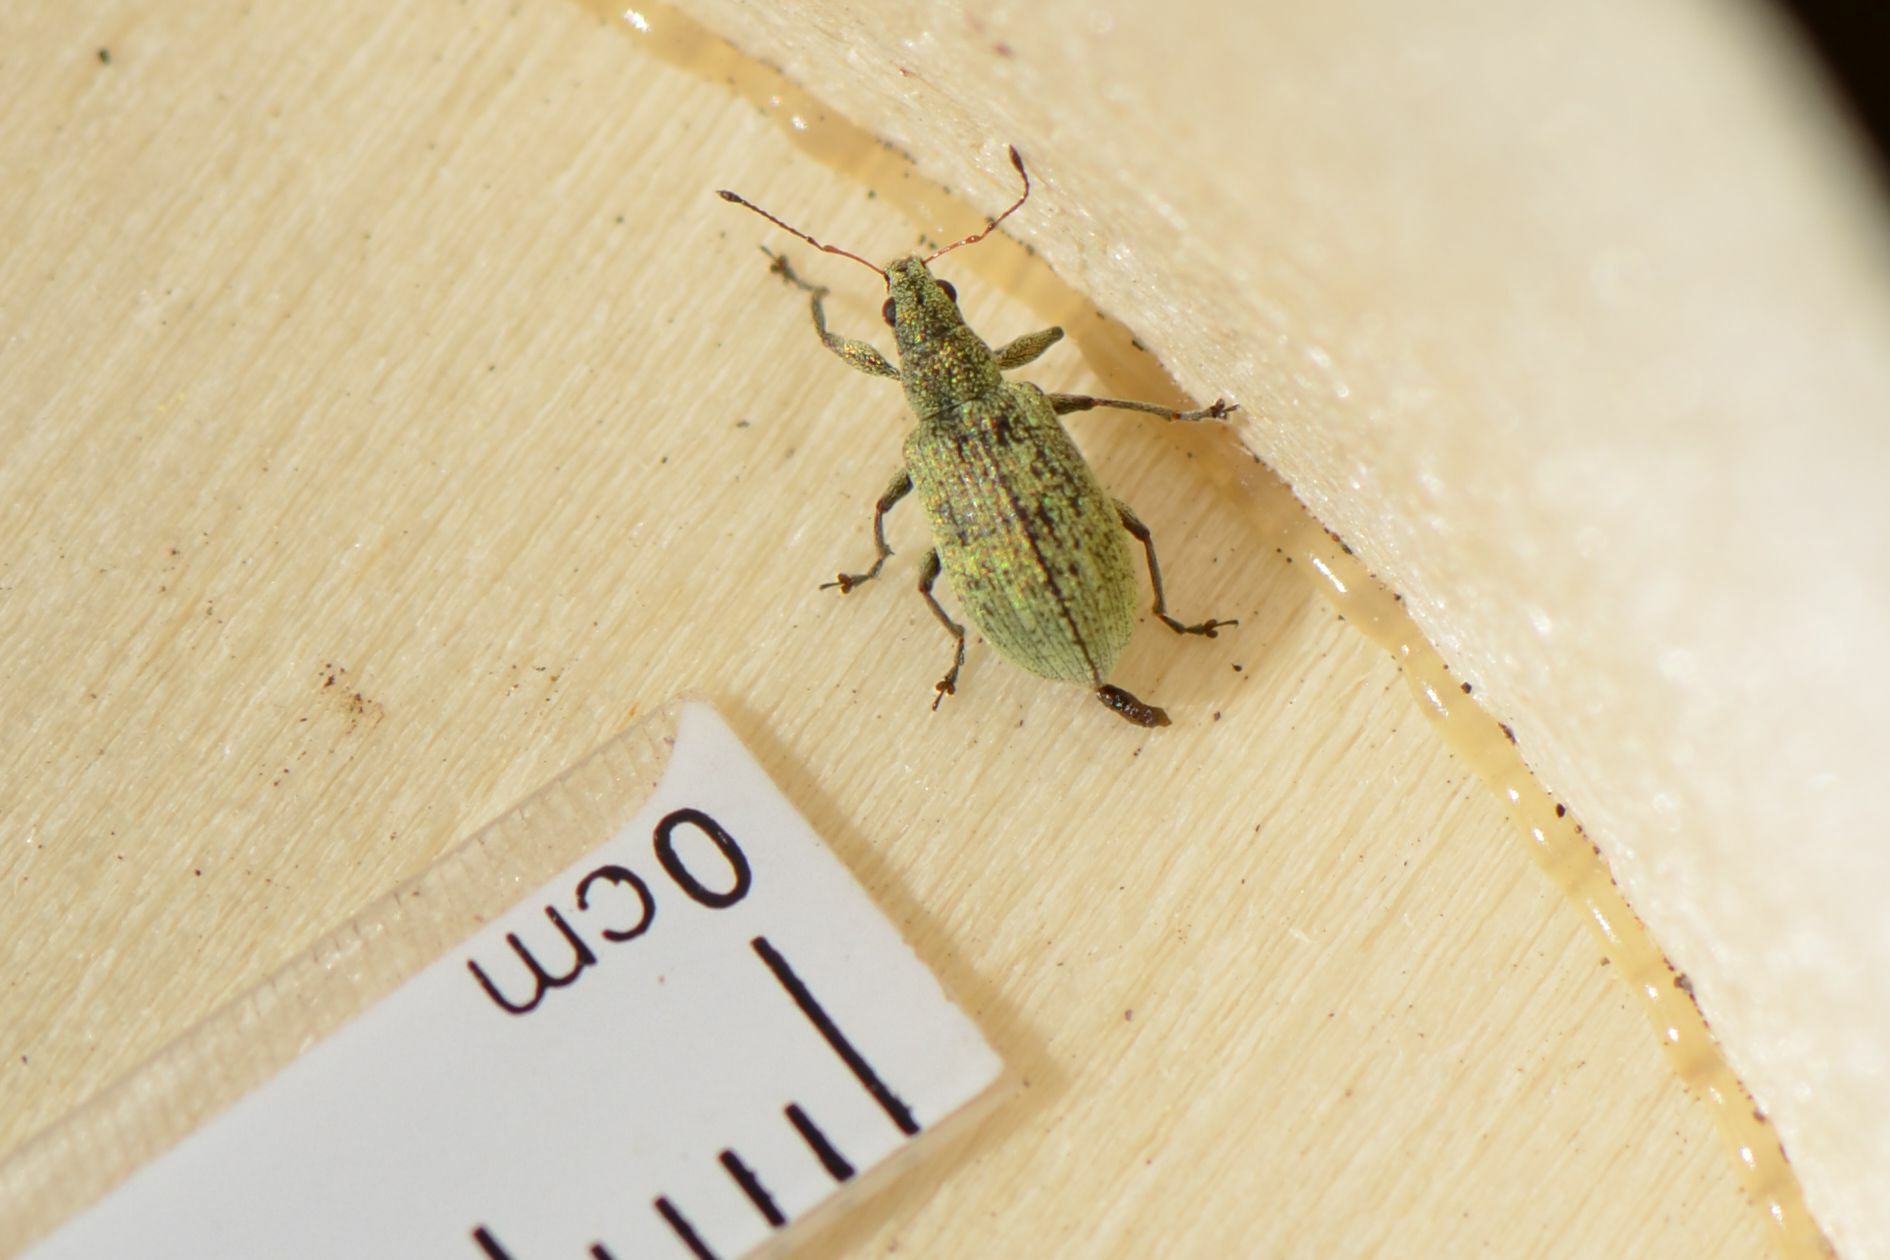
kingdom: Animalia
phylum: Arthropoda
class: Insecta
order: Coleoptera
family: Curculionidae
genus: Polydrusus
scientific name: Polydrusus cervinus
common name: Weevil
